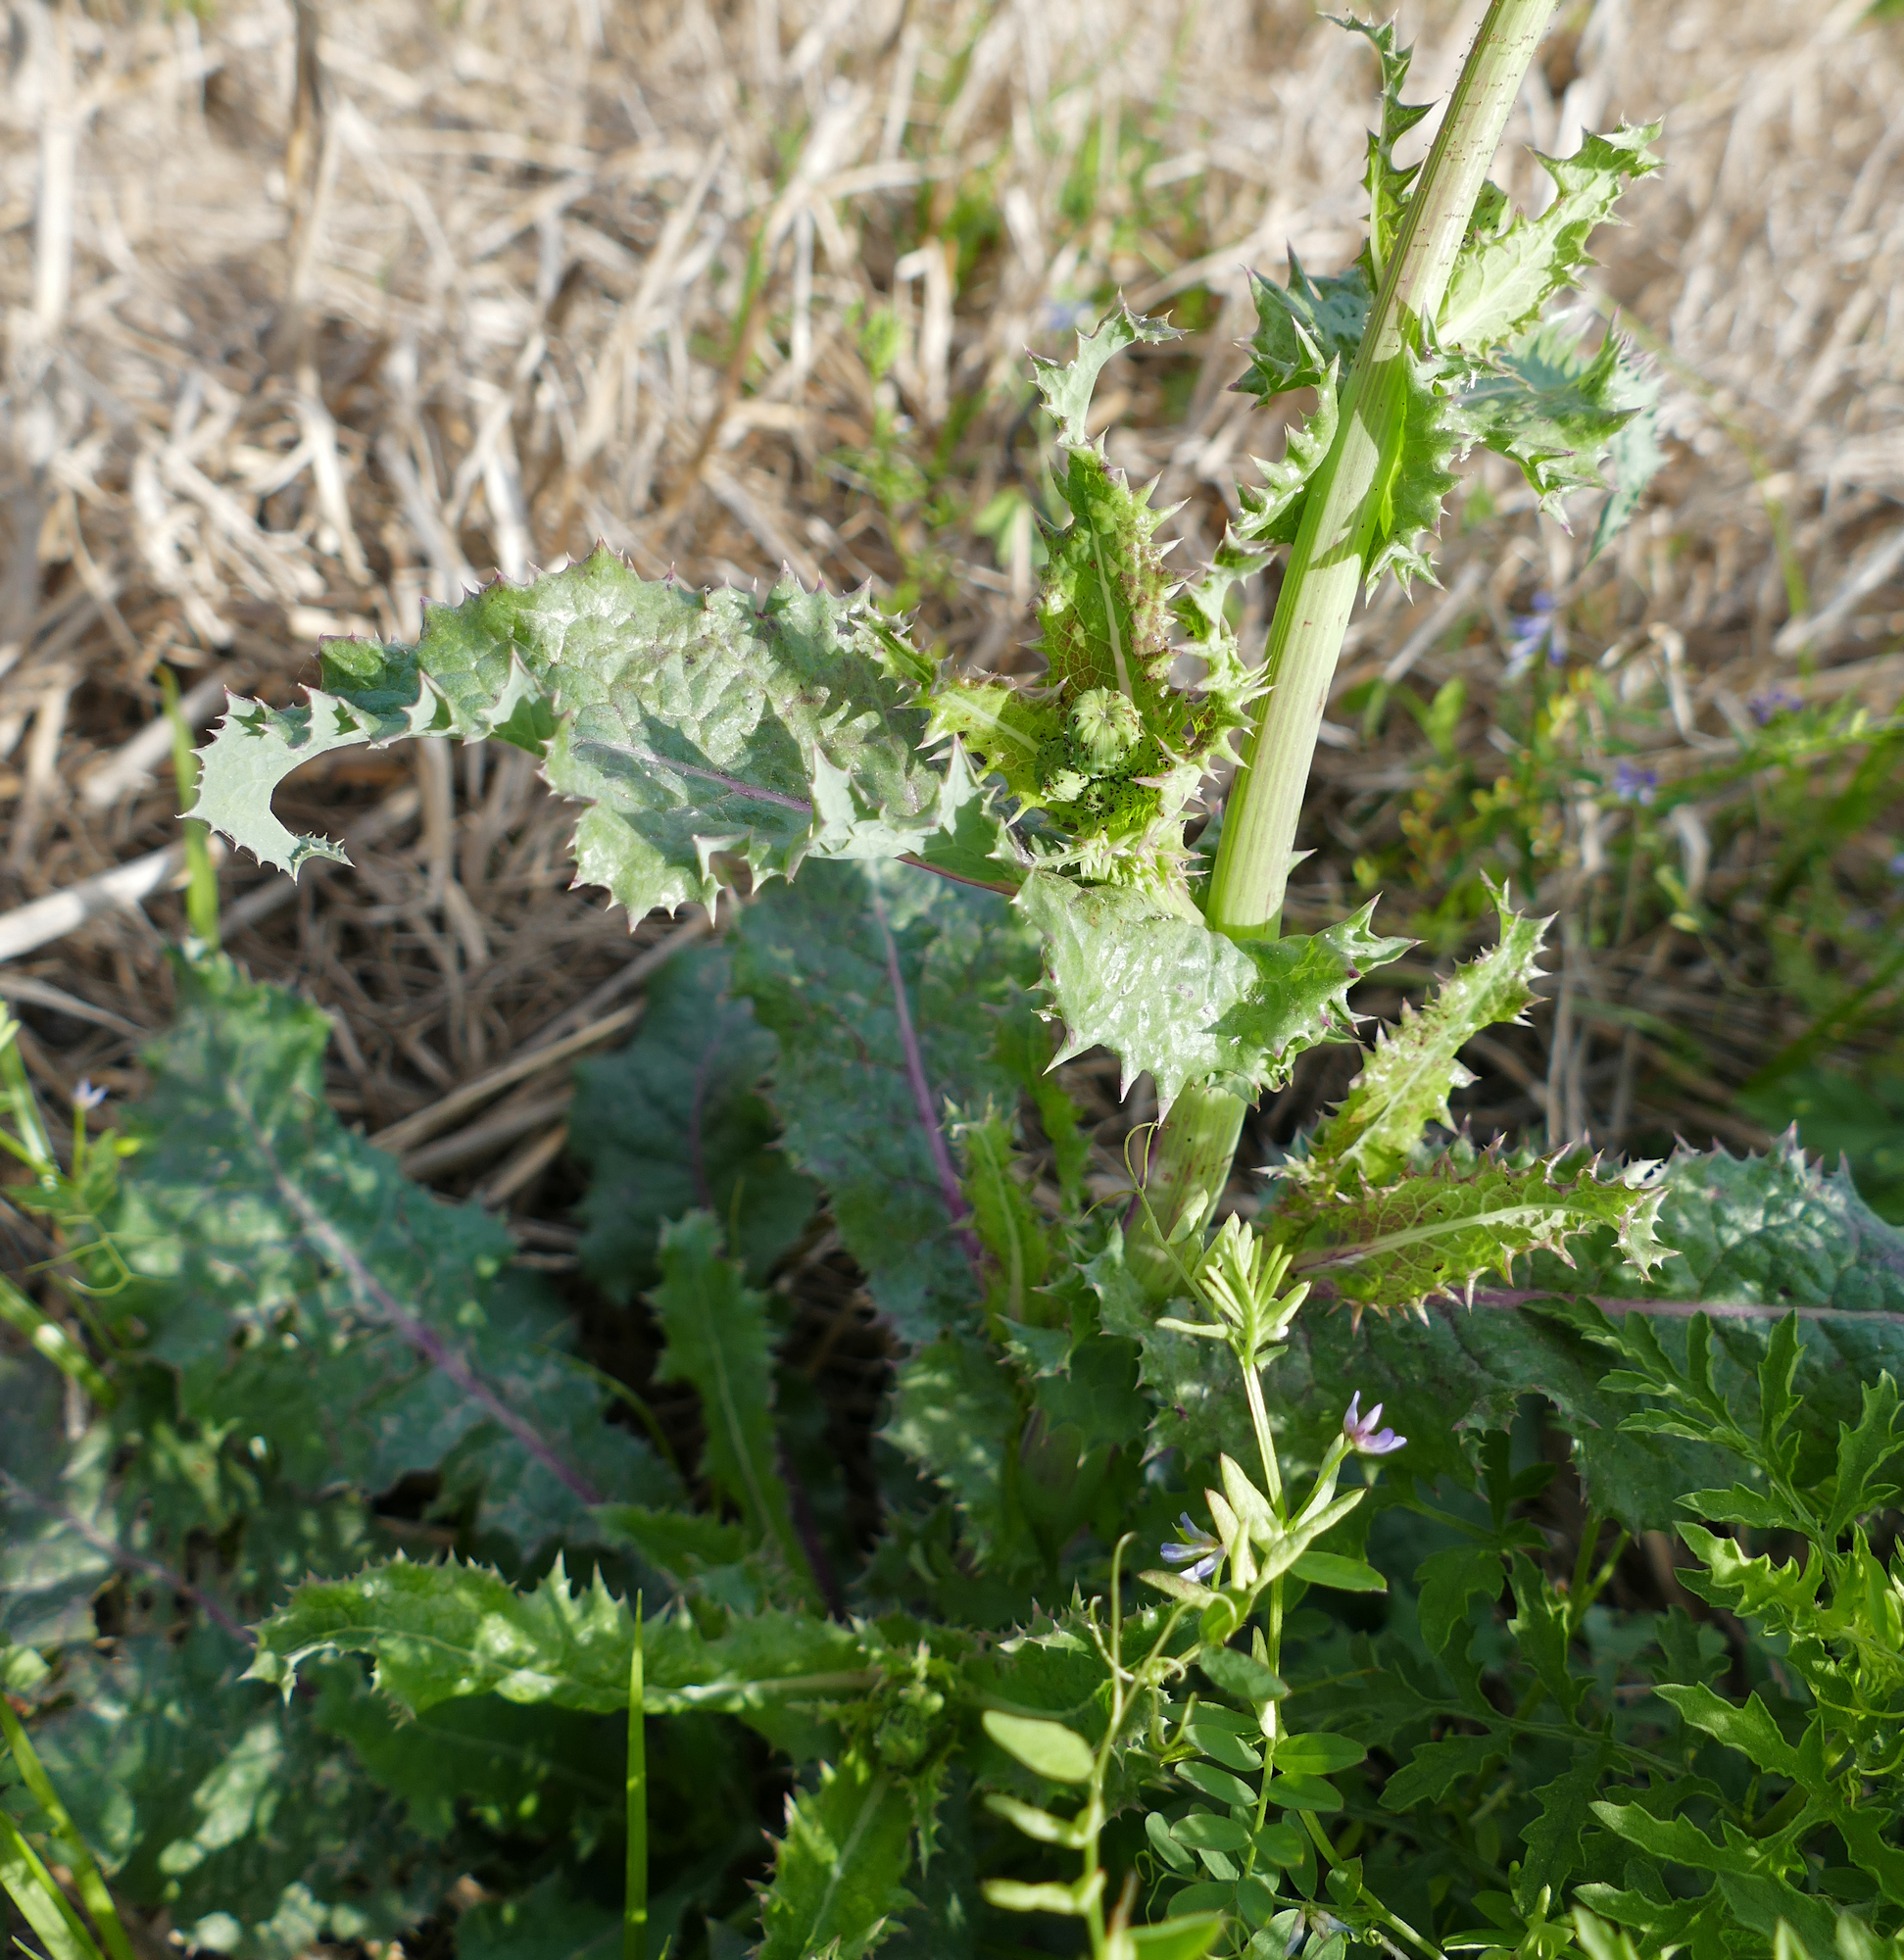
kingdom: Plantae
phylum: Tracheophyta
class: Magnoliopsida
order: Asterales
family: Asteraceae
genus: Sonchus
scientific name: Sonchus asper
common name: Prickly sow-thistle
